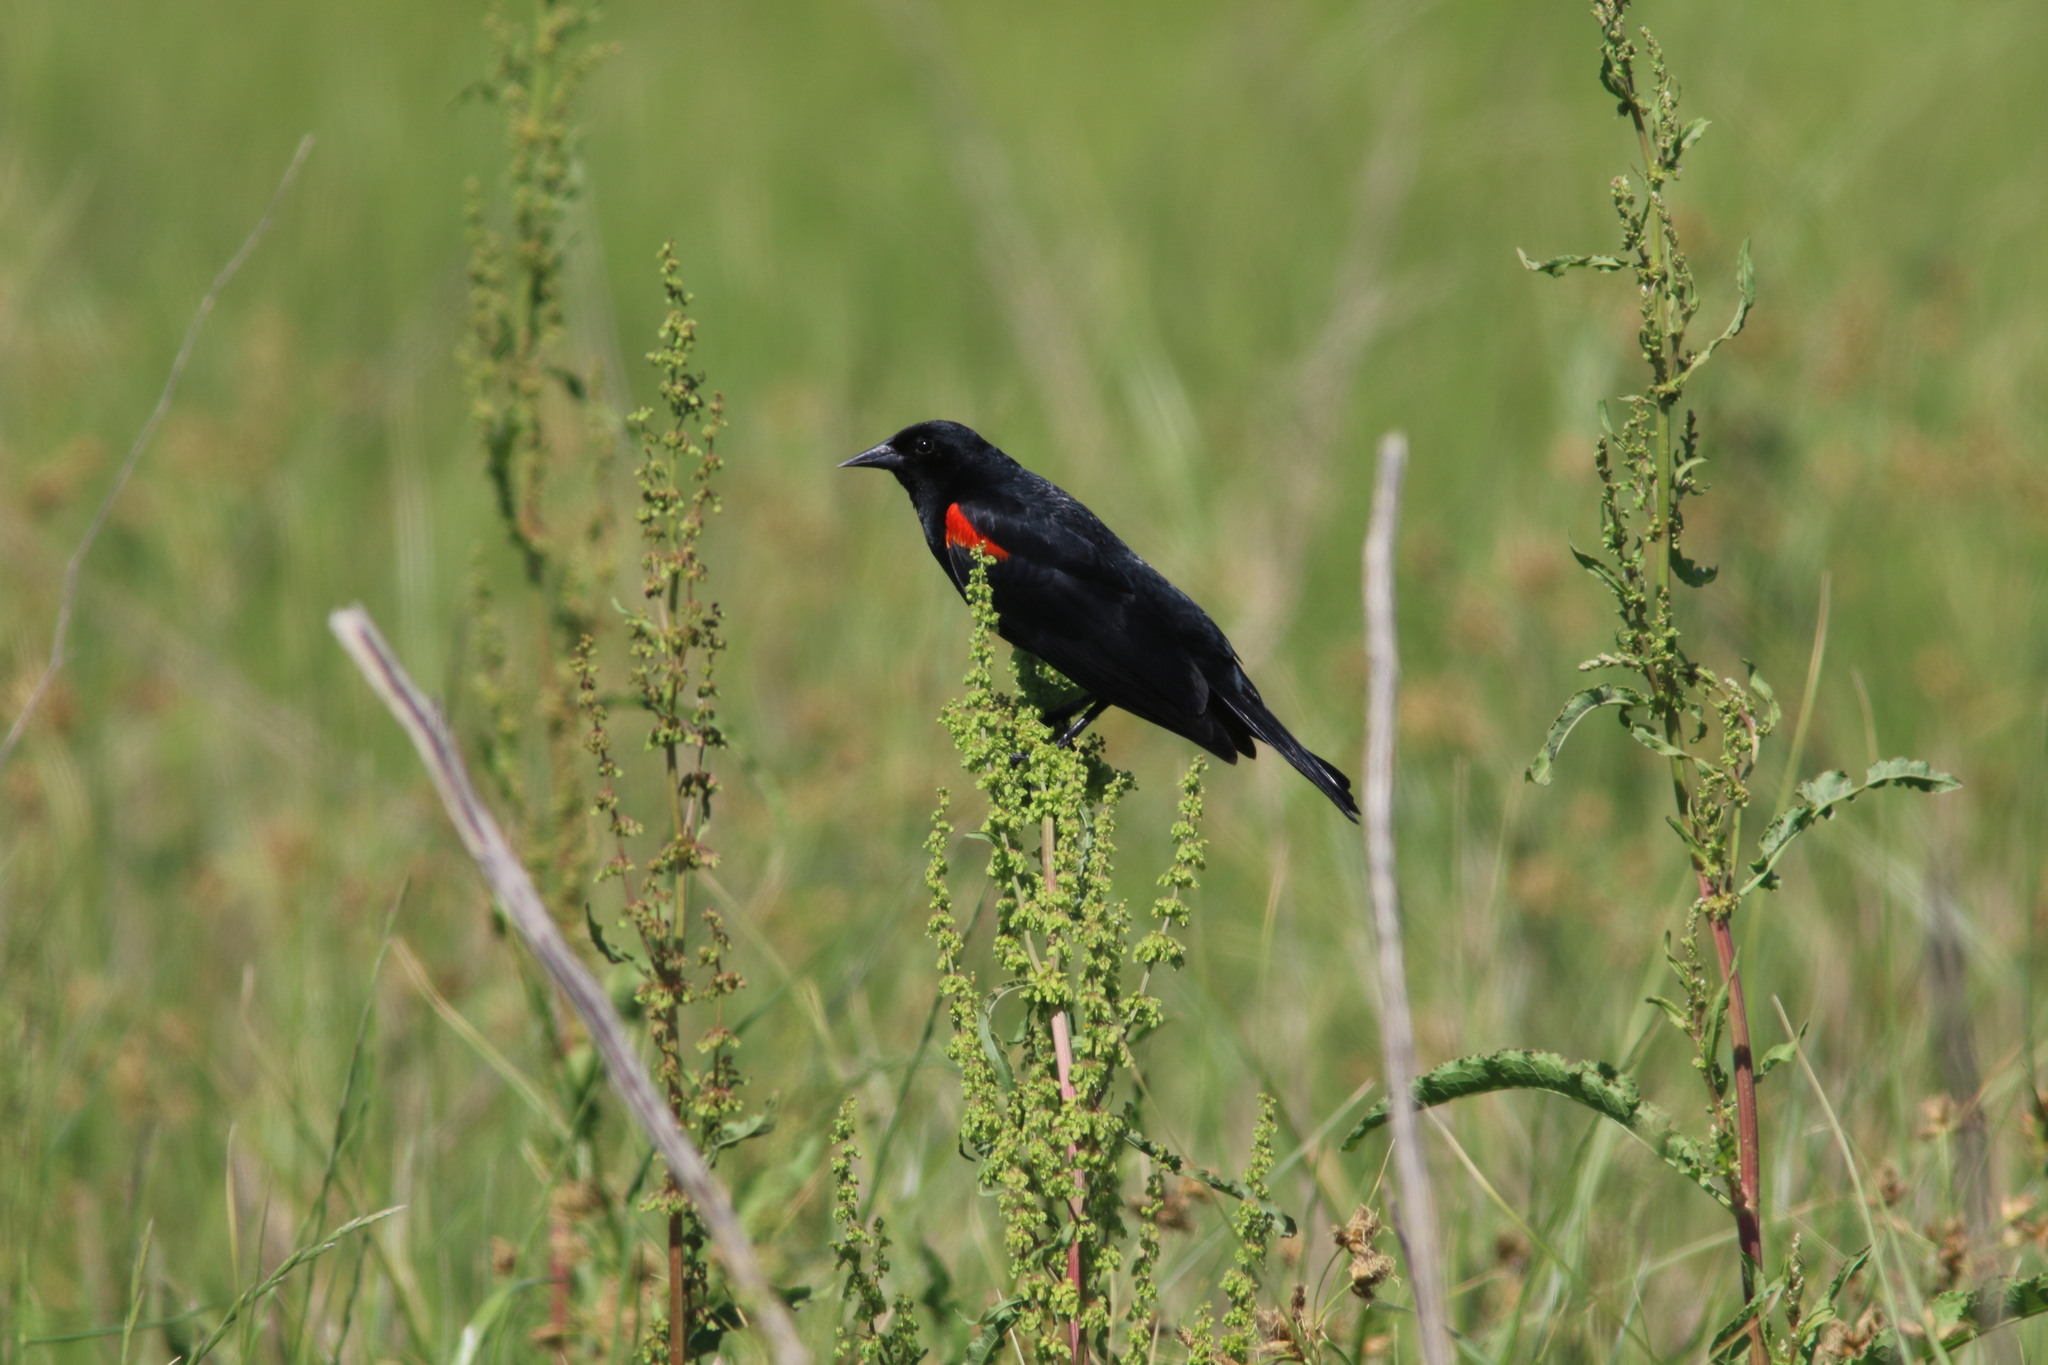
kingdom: Animalia
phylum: Chordata
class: Aves
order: Passeriformes
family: Icteridae
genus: Agelaius
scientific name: Agelaius phoeniceus
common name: Red-winged blackbird
